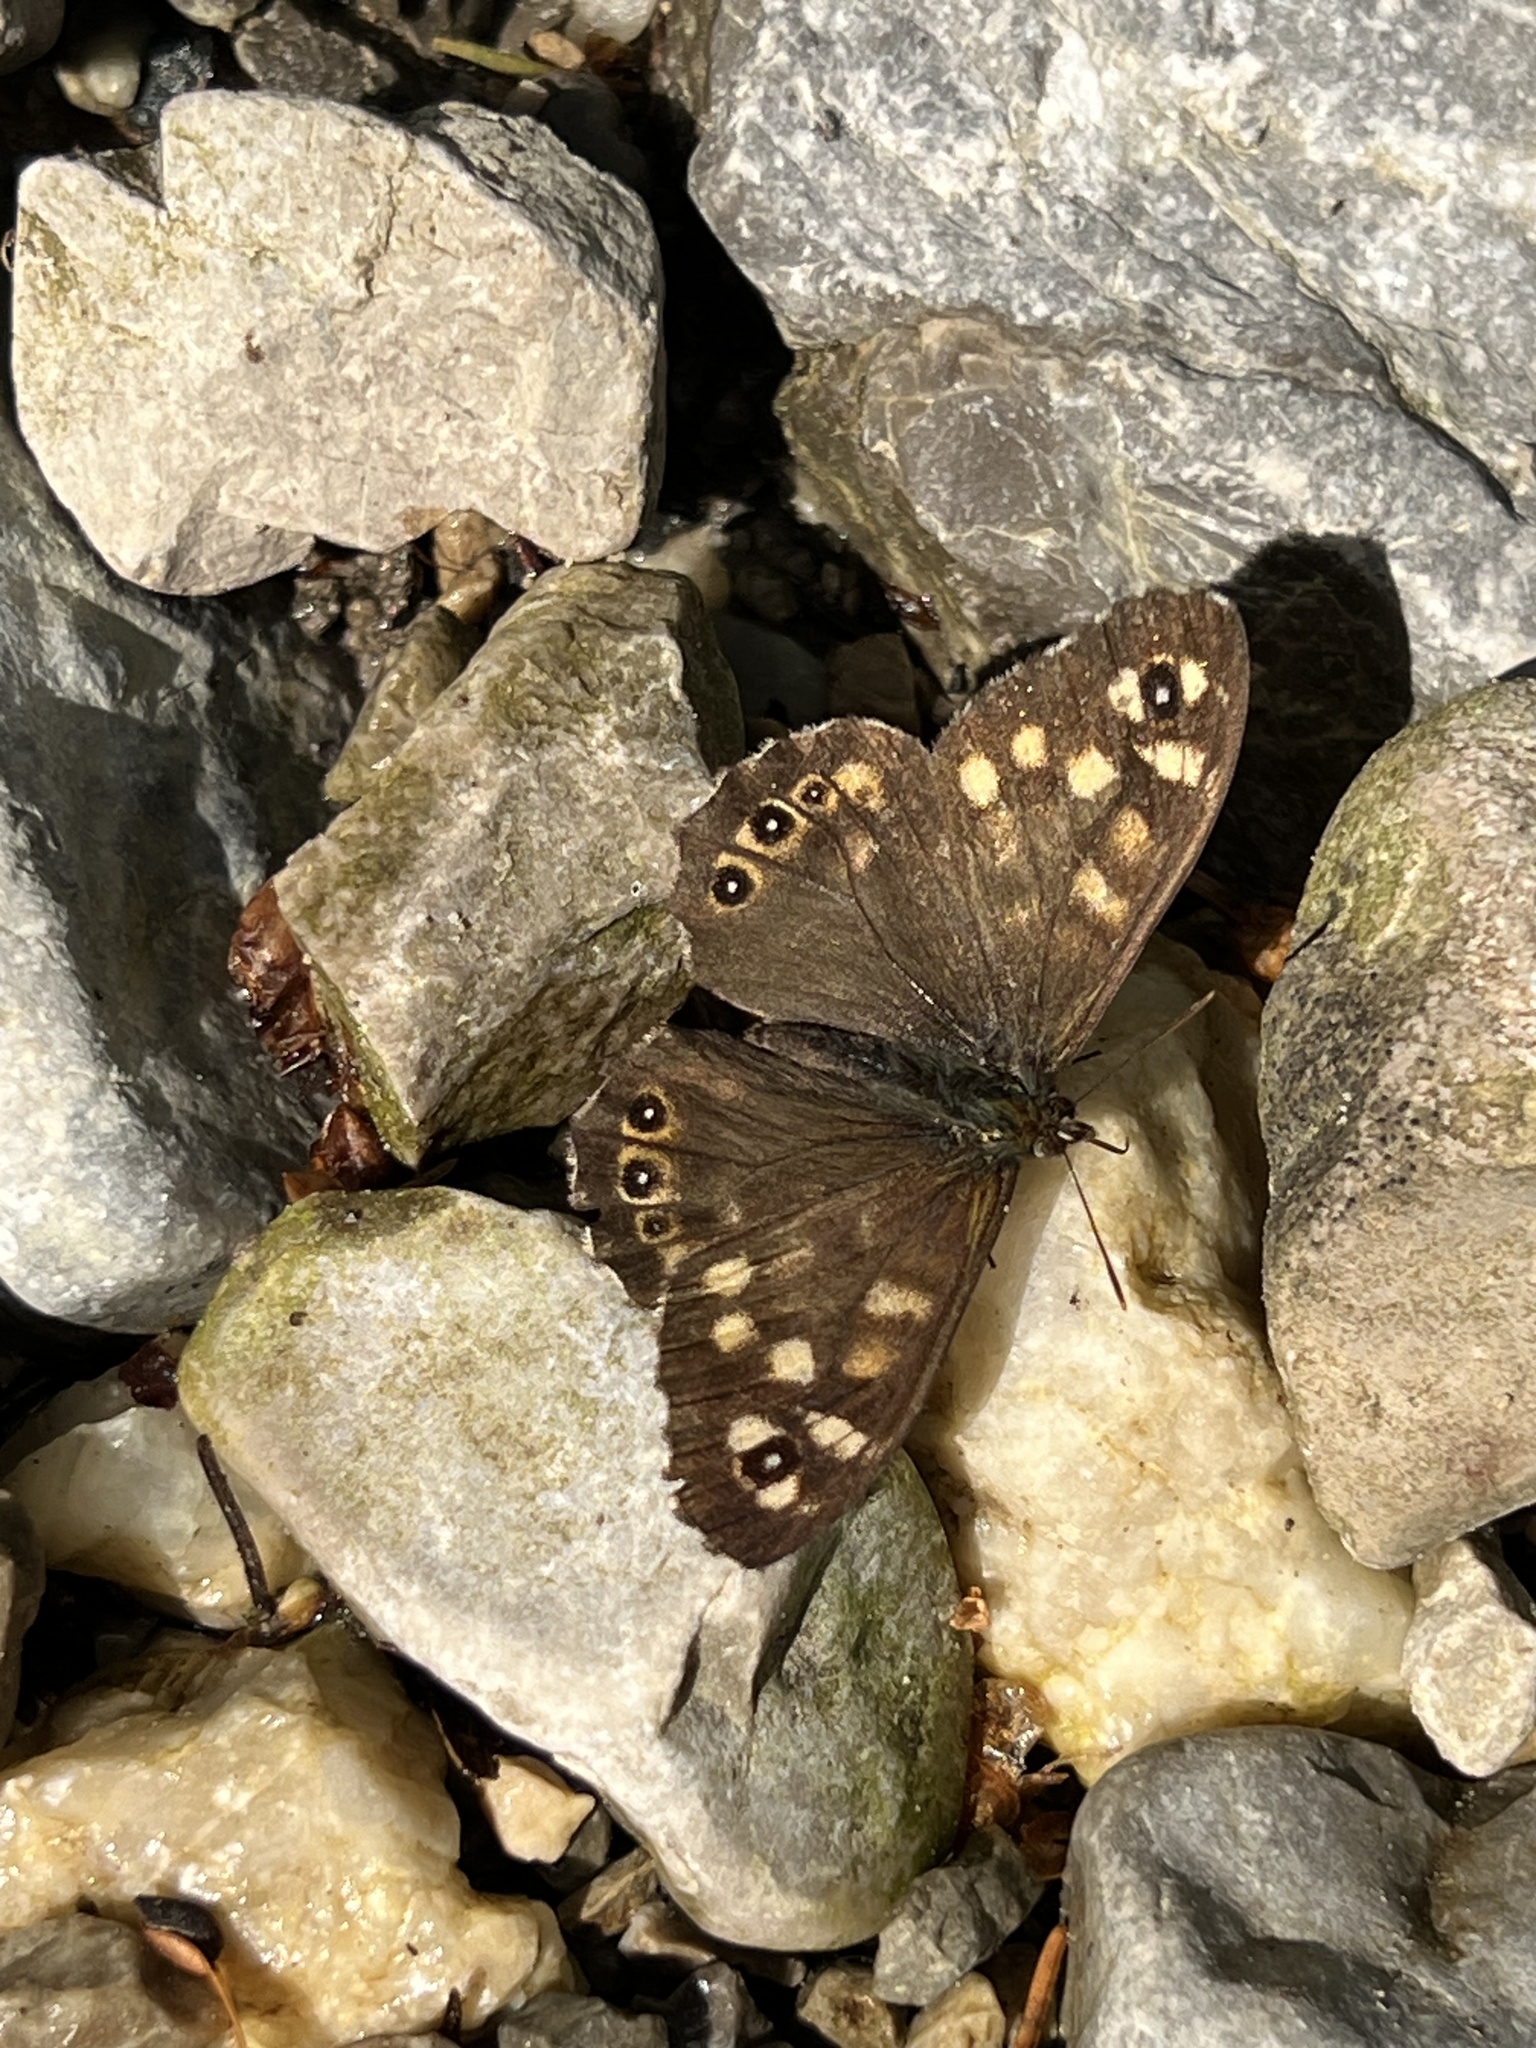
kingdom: Animalia
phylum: Arthropoda
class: Insecta
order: Lepidoptera
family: Nymphalidae
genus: Pararge
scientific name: Pararge aegeria
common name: Speckled wood
